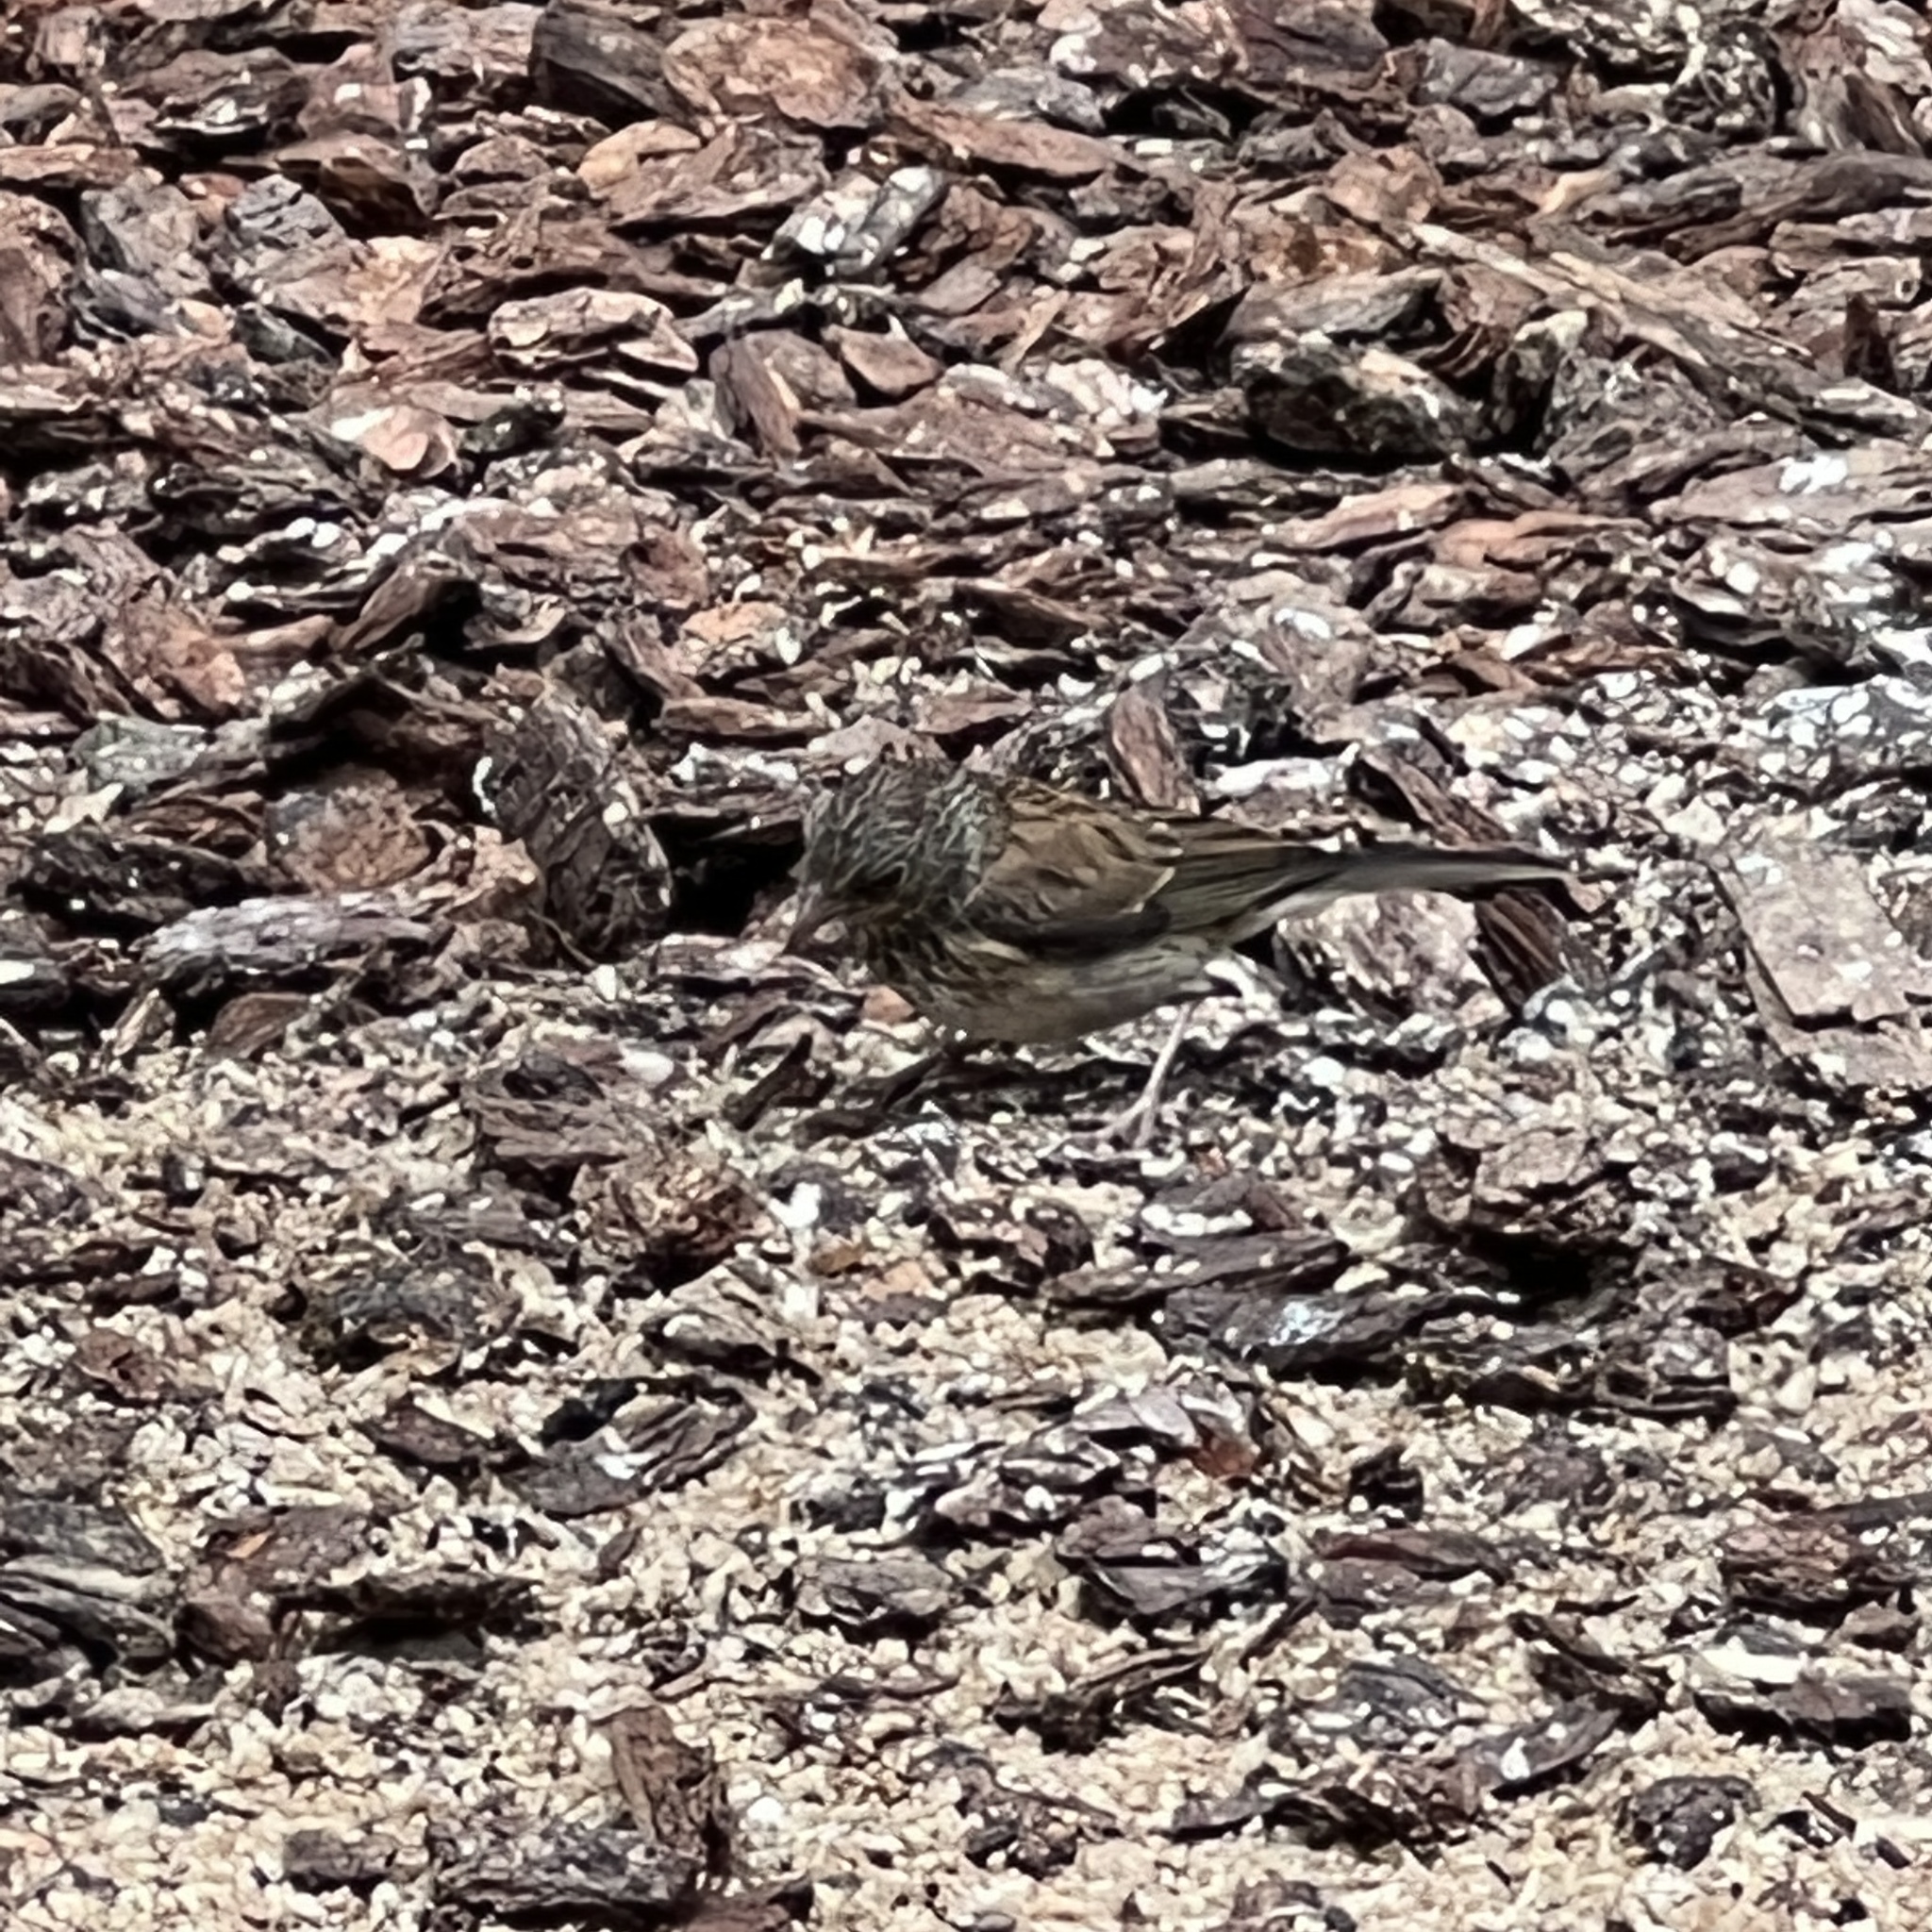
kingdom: Animalia
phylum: Chordata
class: Aves
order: Passeriformes
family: Passerellidae
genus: Junco
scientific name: Junco hyemalis
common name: Dark-eyed junco
